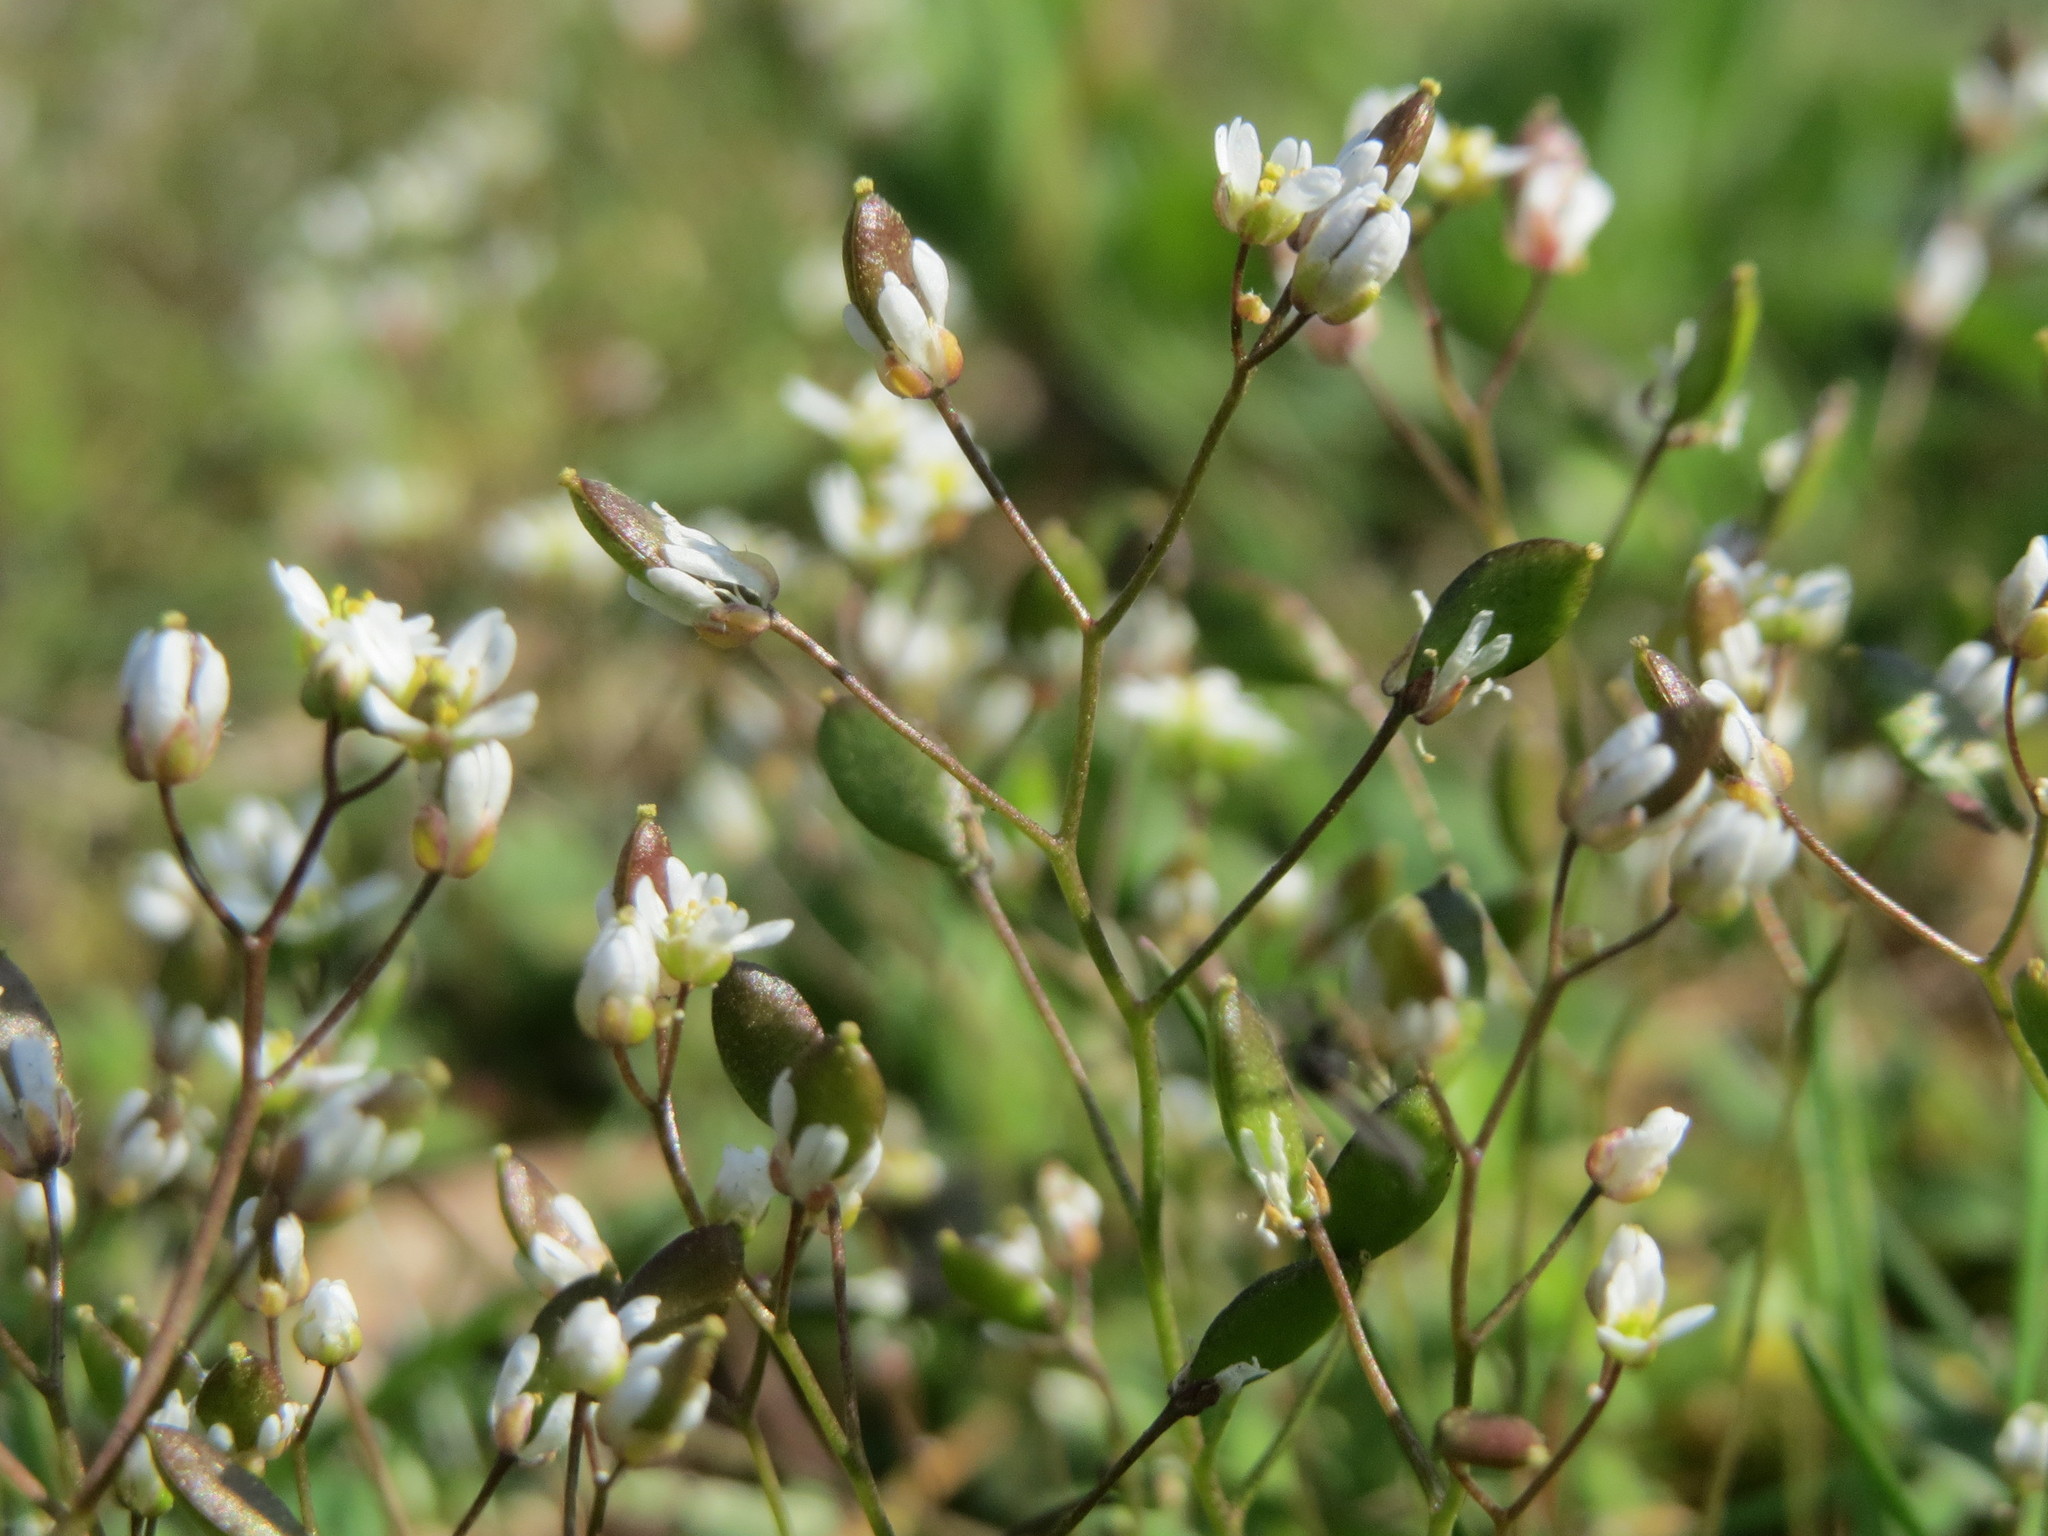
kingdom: Plantae
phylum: Tracheophyta
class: Magnoliopsida
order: Brassicales
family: Brassicaceae
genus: Draba
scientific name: Draba verna
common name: Spring draba
